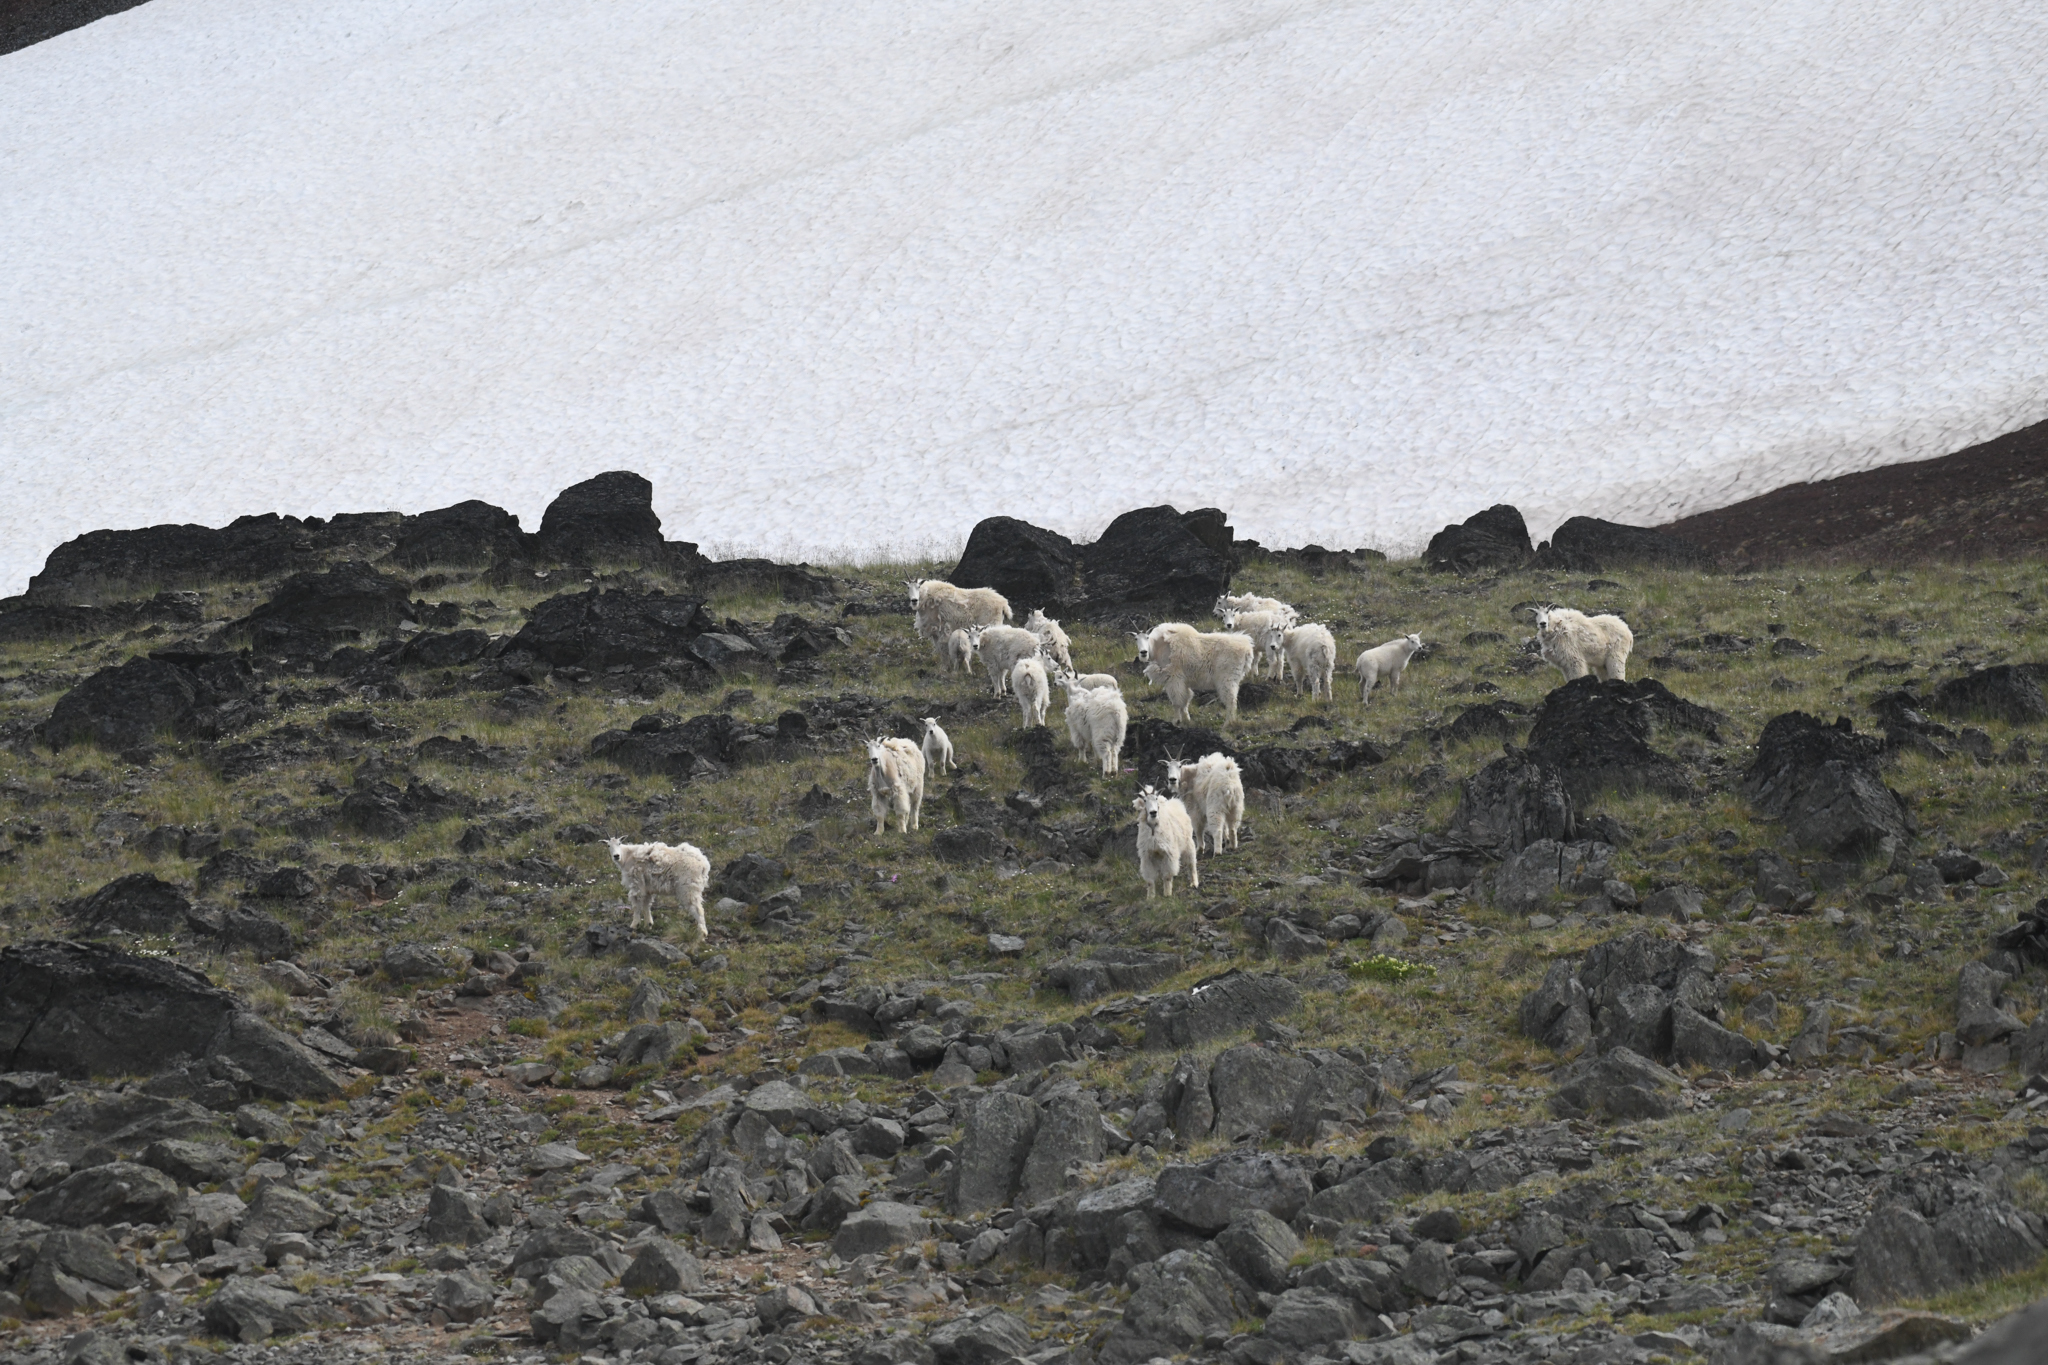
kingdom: Animalia
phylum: Chordata
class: Mammalia
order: Artiodactyla
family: Bovidae
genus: Oreamnos
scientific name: Oreamnos americanus
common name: Mountain goat
